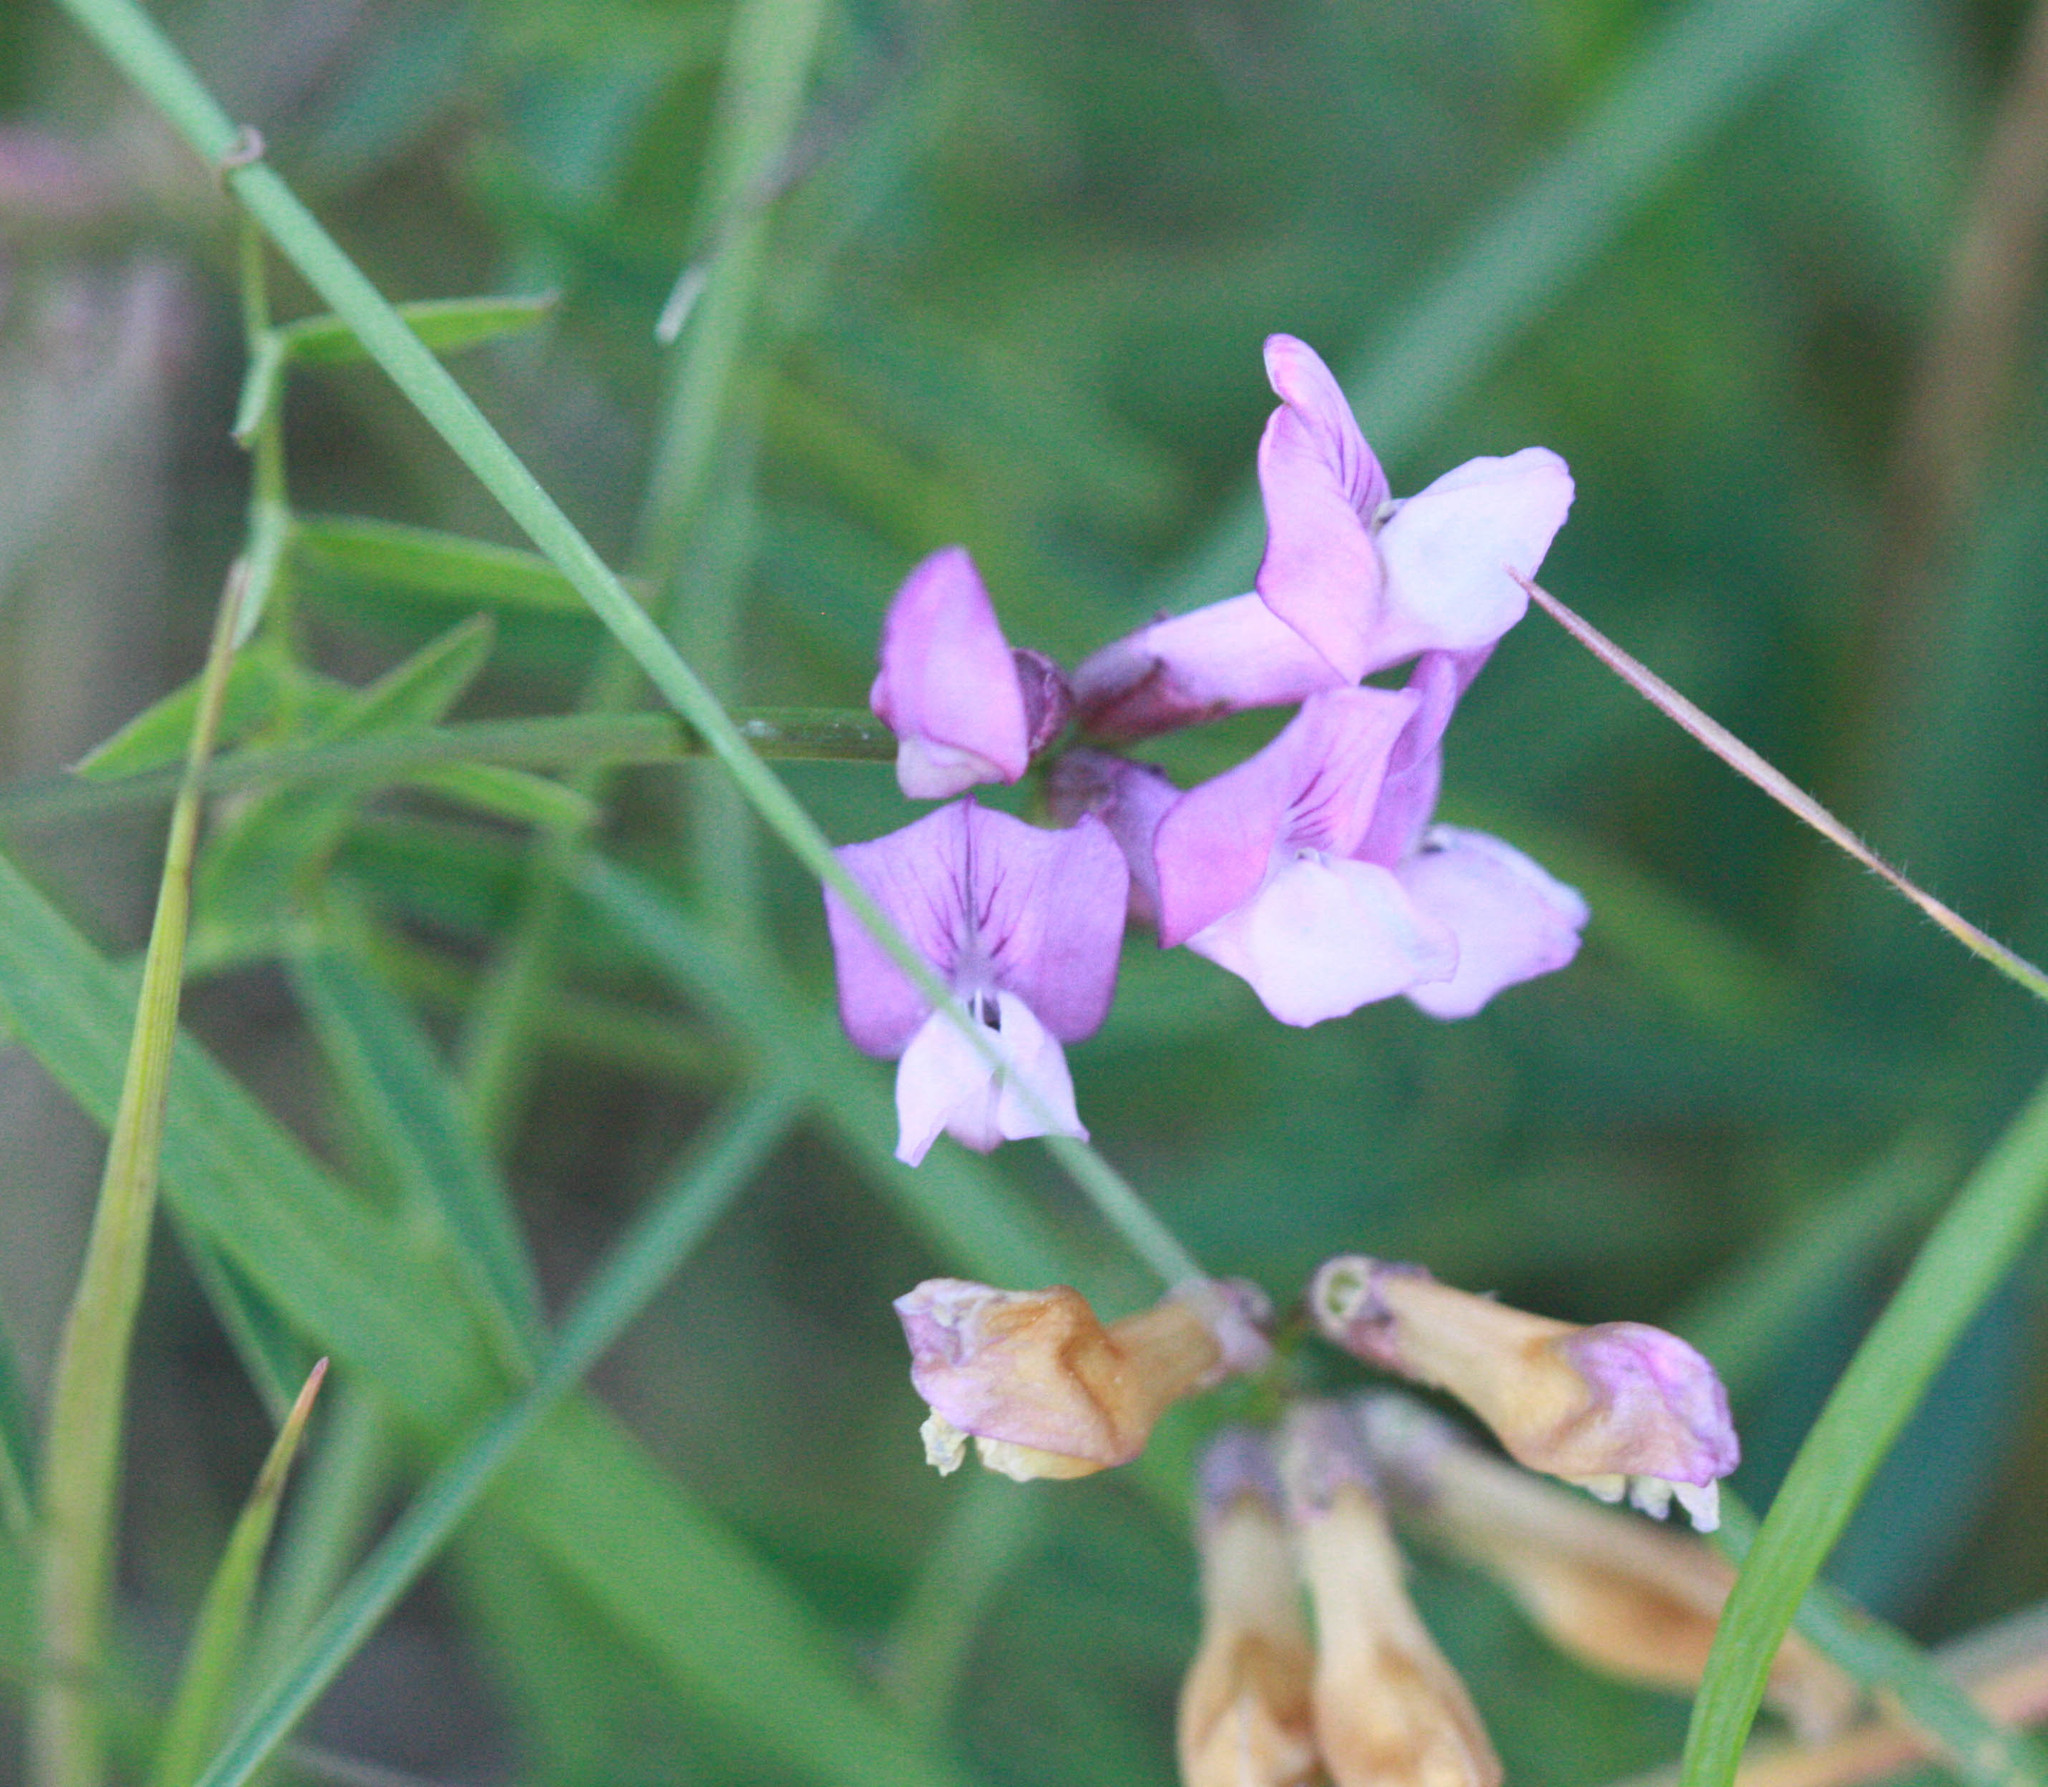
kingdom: Plantae
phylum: Tracheophyta
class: Magnoliopsida
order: Fabales
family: Fabaceae
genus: Vicia
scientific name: Vicia americana
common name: American vetch
